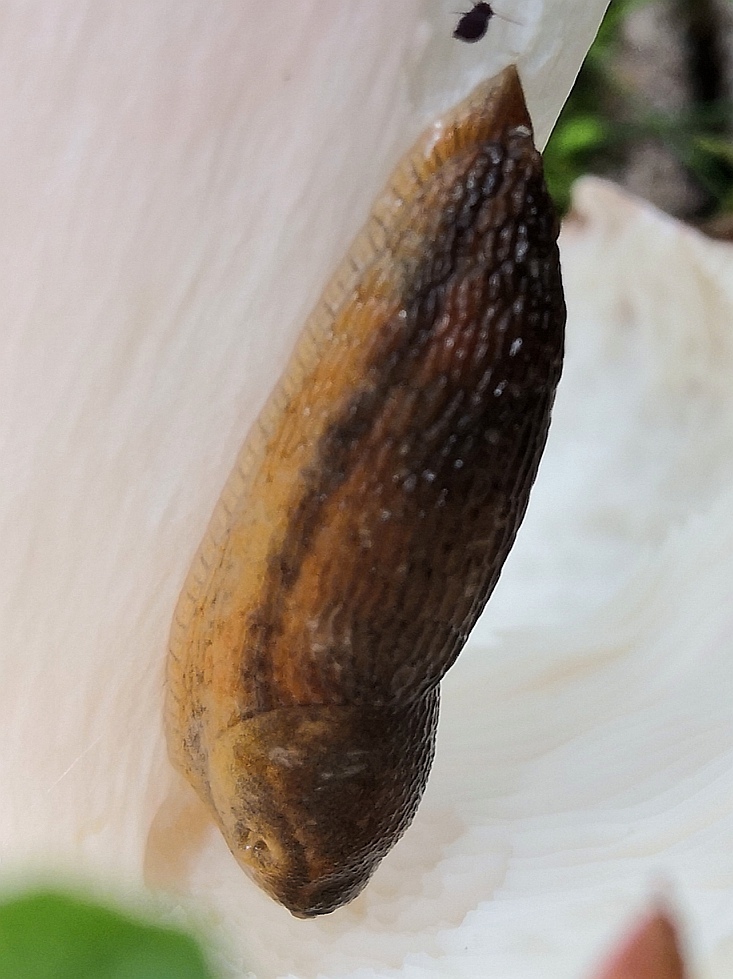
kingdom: Animalia
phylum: Mollusca
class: Gastropoda
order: Stylommatophora
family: Arionidae
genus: Arion
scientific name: Arion subfuscus
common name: Dusky arion
